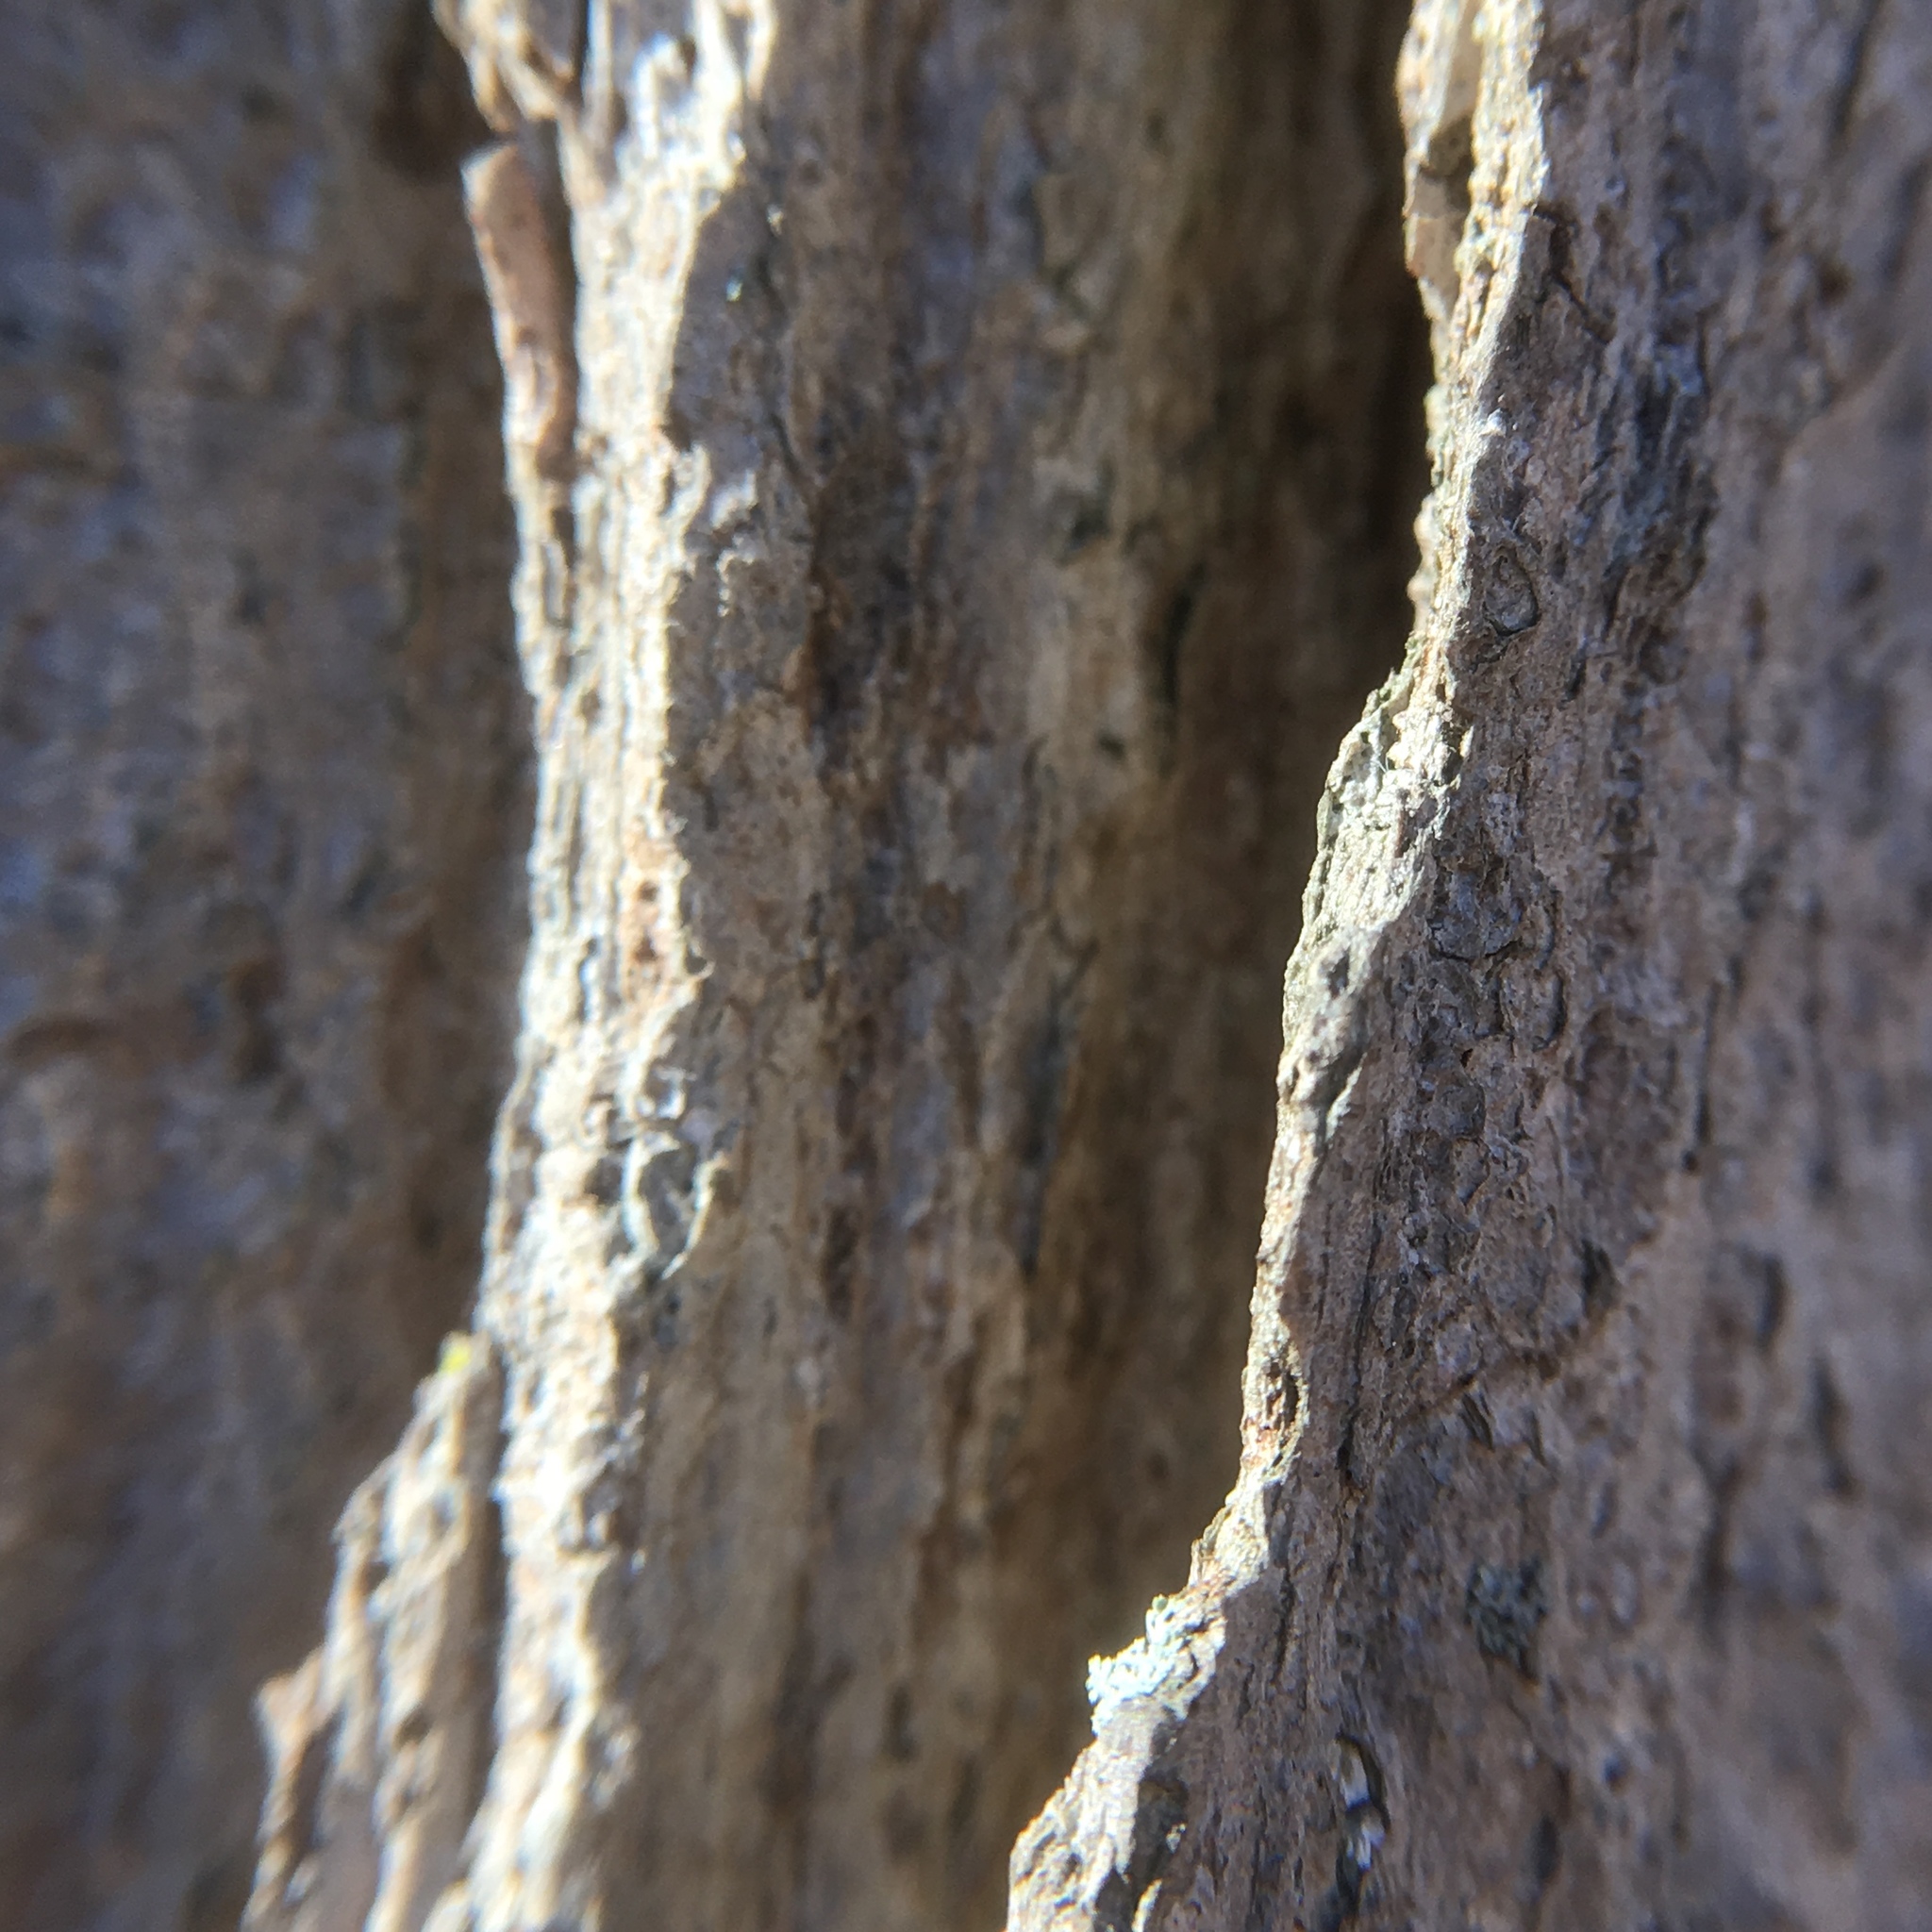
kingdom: Plantae
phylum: Tracheophyta
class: Magnoliopsida
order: Fagales
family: Juglandaceae
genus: Carya
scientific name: Carya ovata
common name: Shagbark hickory
